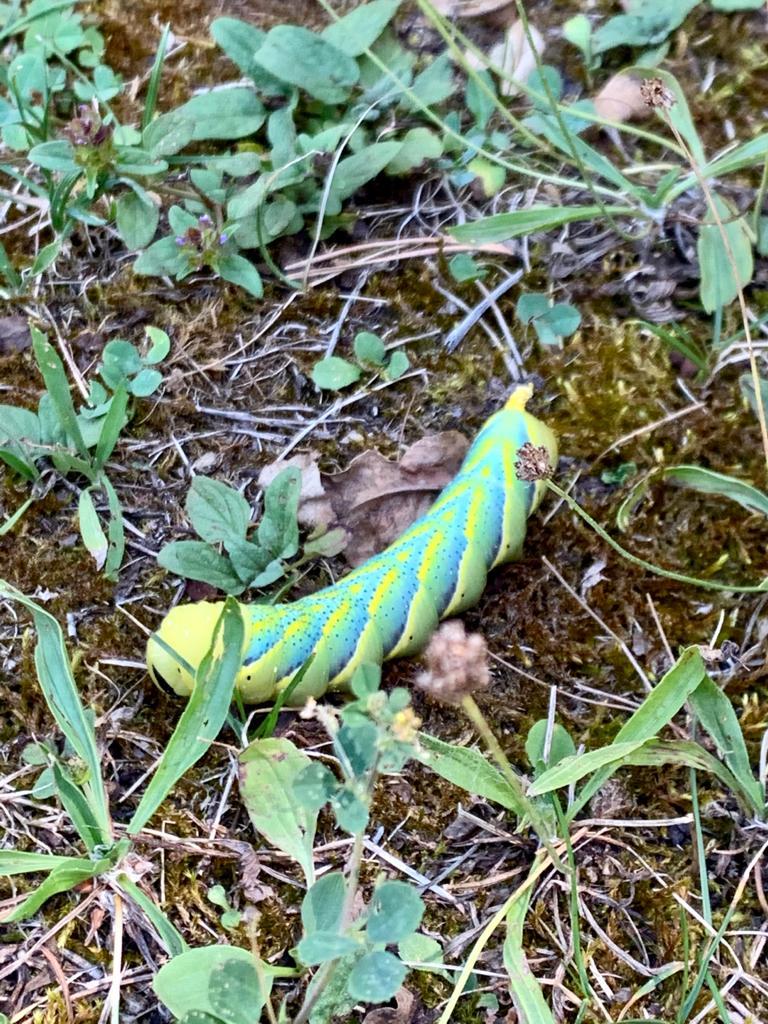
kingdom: Animalia
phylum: Arthropoda
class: Insecta
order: Lepidoptera
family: Sphingidae
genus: Acherontia
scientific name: Acherontia atropos
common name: Death's-head hawk moth
